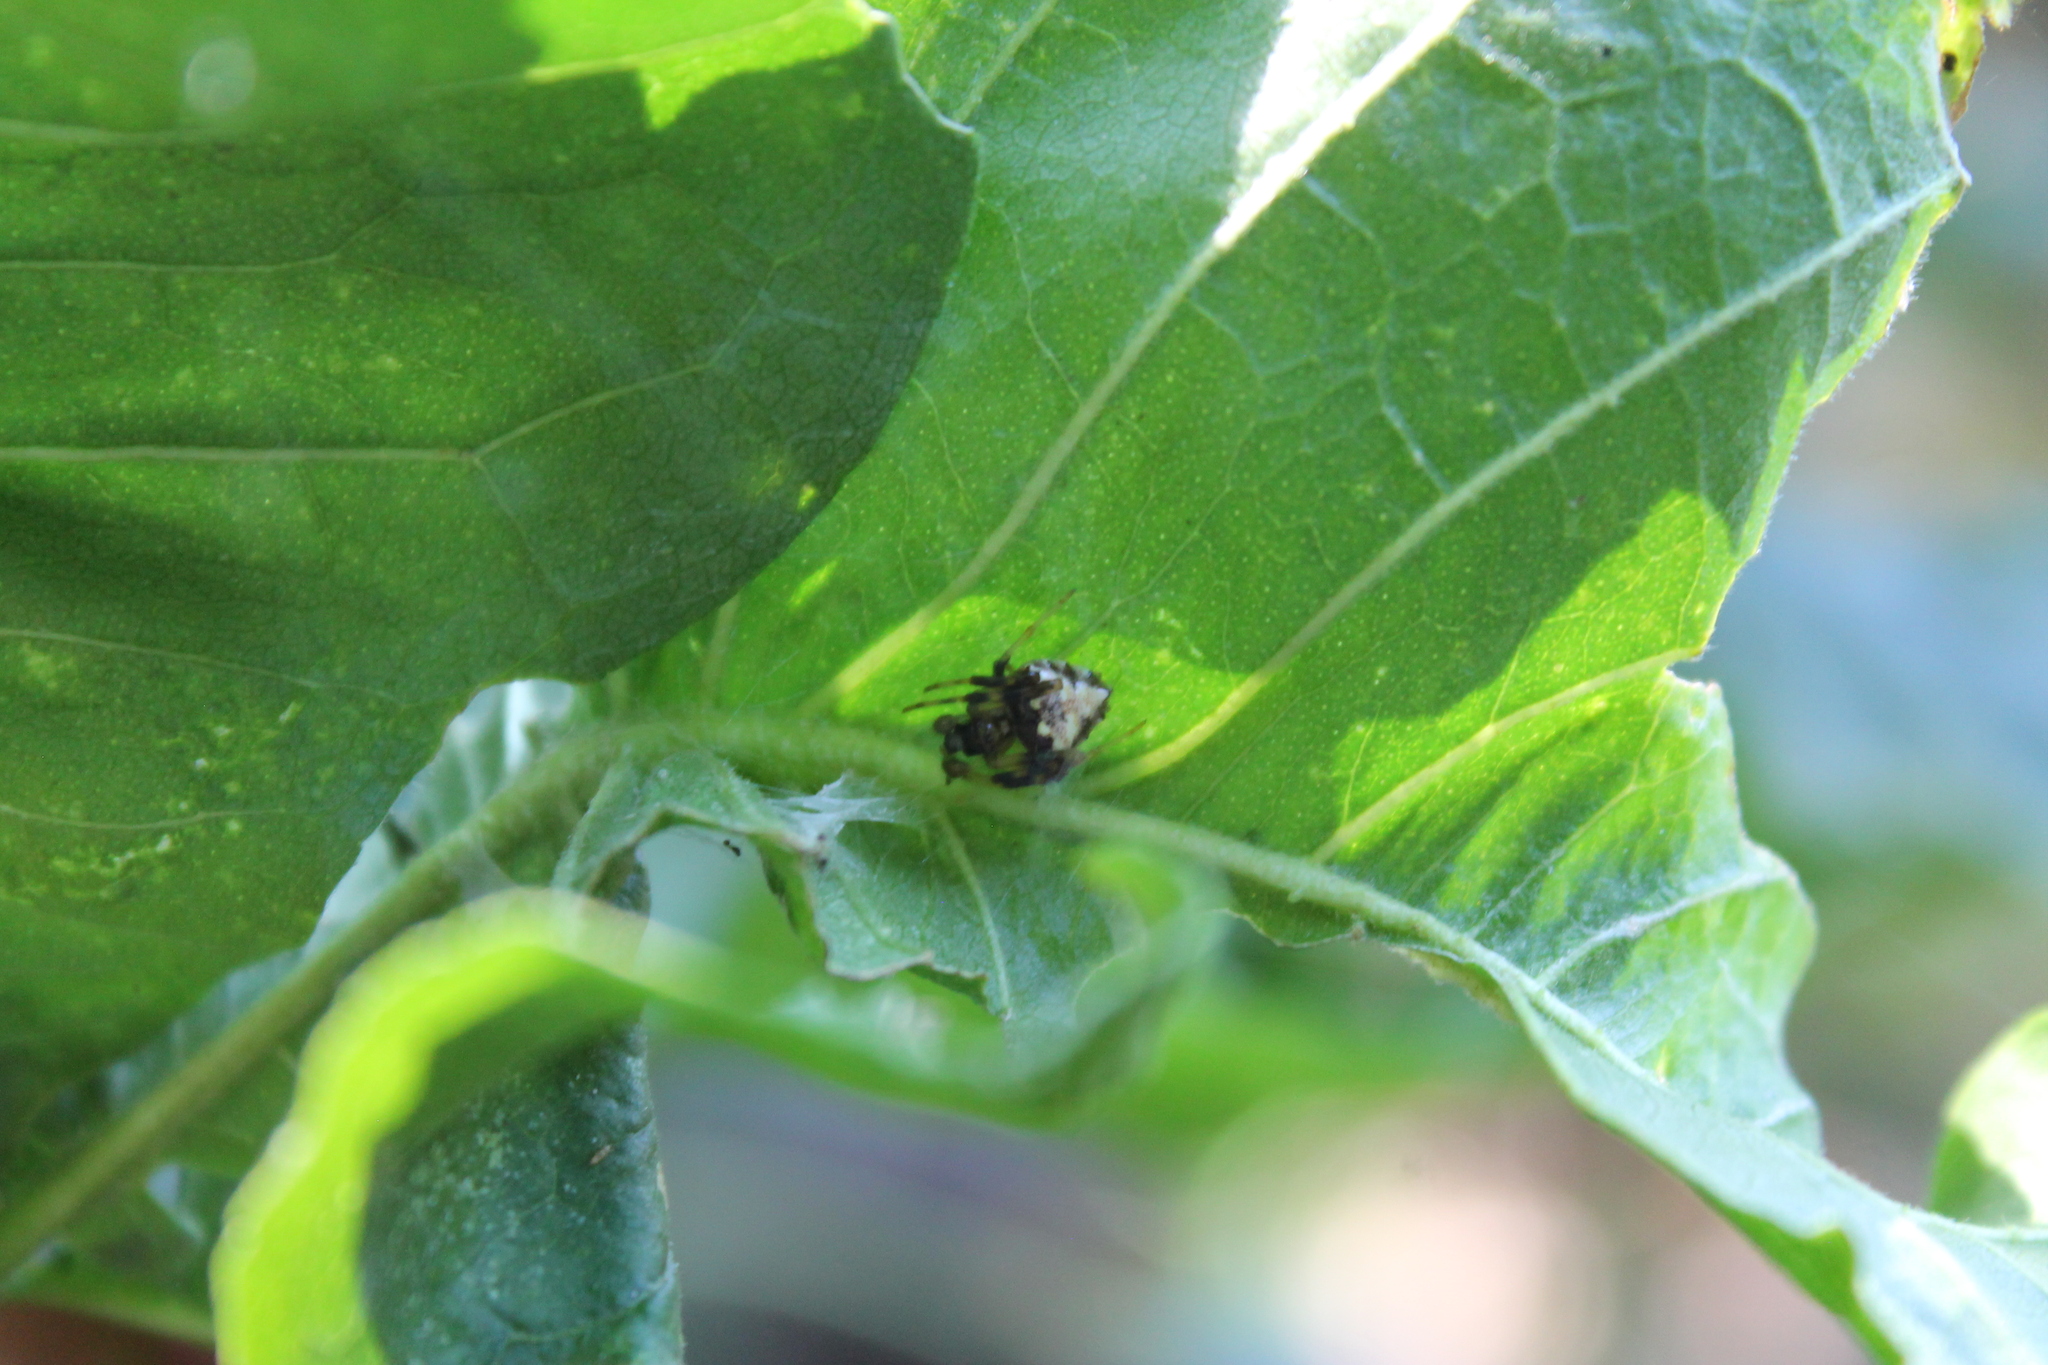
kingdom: Animalia
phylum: Arthropoda
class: Arachnida
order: Araneae
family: Araneidae
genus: Verrucosa
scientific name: Verrucosa arenata
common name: Orb weavers
